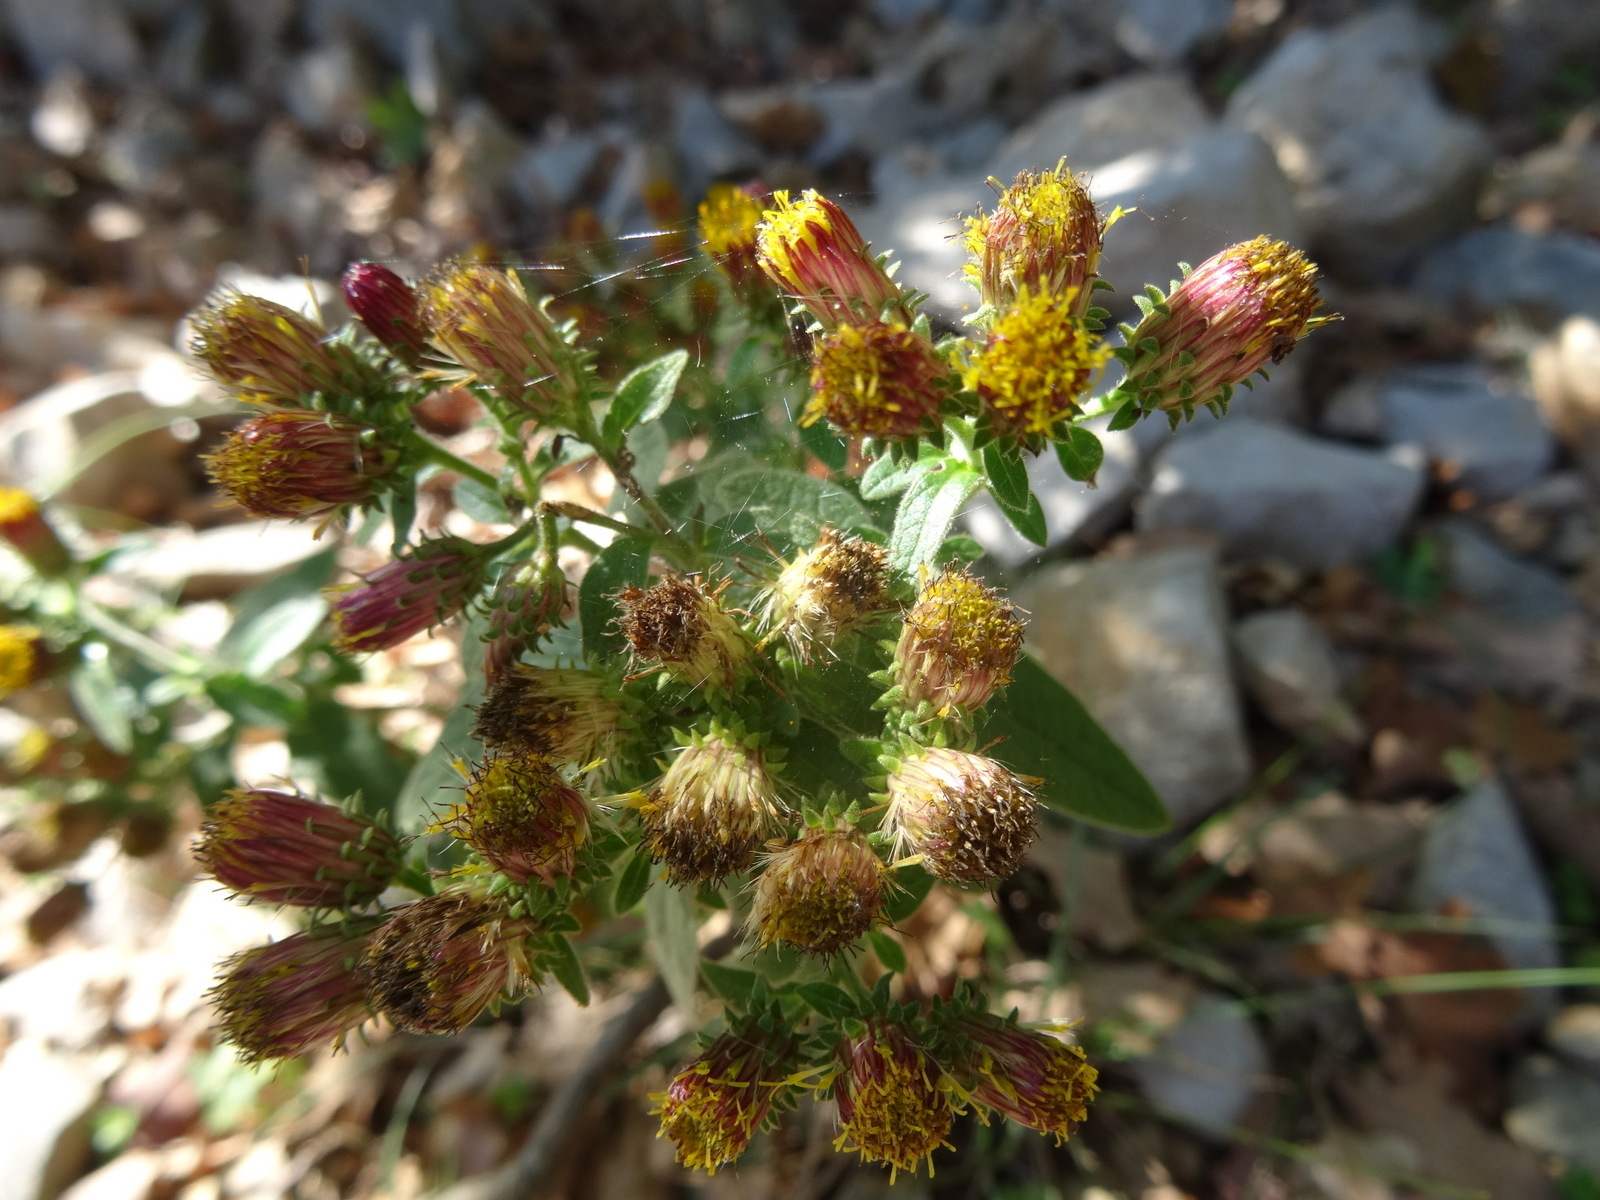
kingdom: Plantae
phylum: Tracheophyta
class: Magnoliopsida
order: Asterales
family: Asteraceae
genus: Pentanema
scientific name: Pentanema squarrosum
